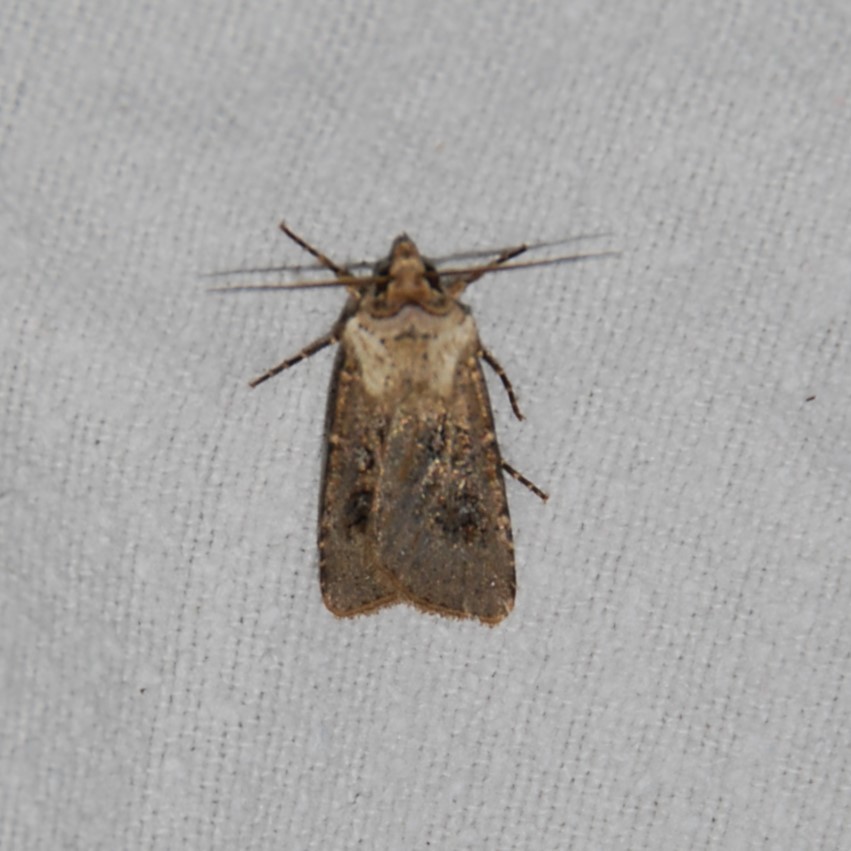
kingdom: Animalia
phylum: Arthropoda
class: Insecta
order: Lepidoptera
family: Noctuidae
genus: Agrotis
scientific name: Agrotis segetum
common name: Turnip moth
